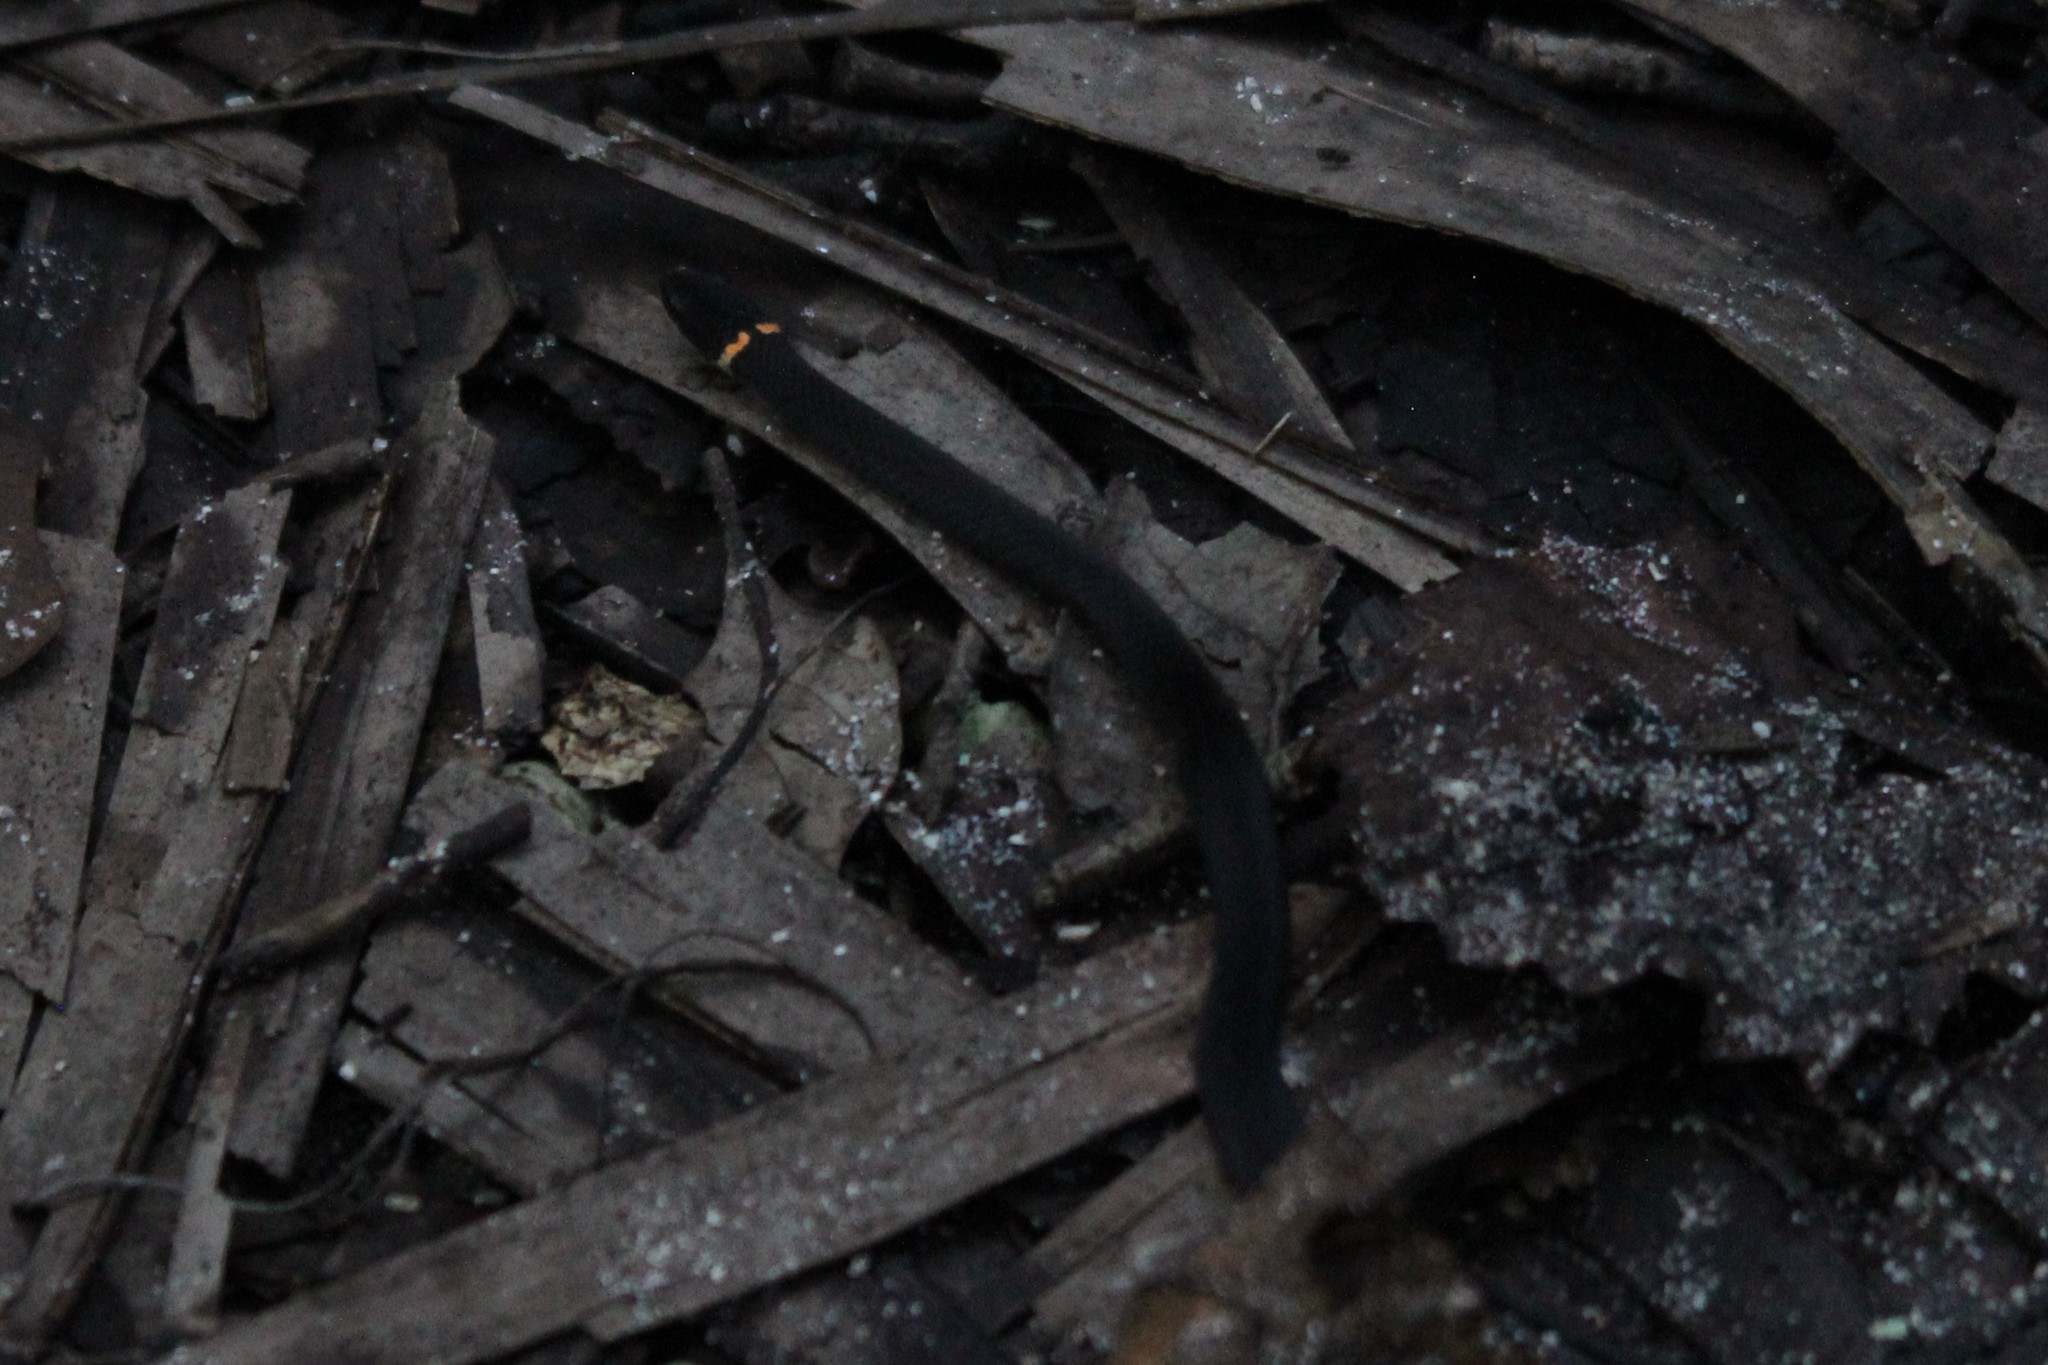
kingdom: Animalia
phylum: Chordata
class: Squamata
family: Colubridae
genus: Diadophis
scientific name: Diadophis punctatus
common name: Ringneck snake
